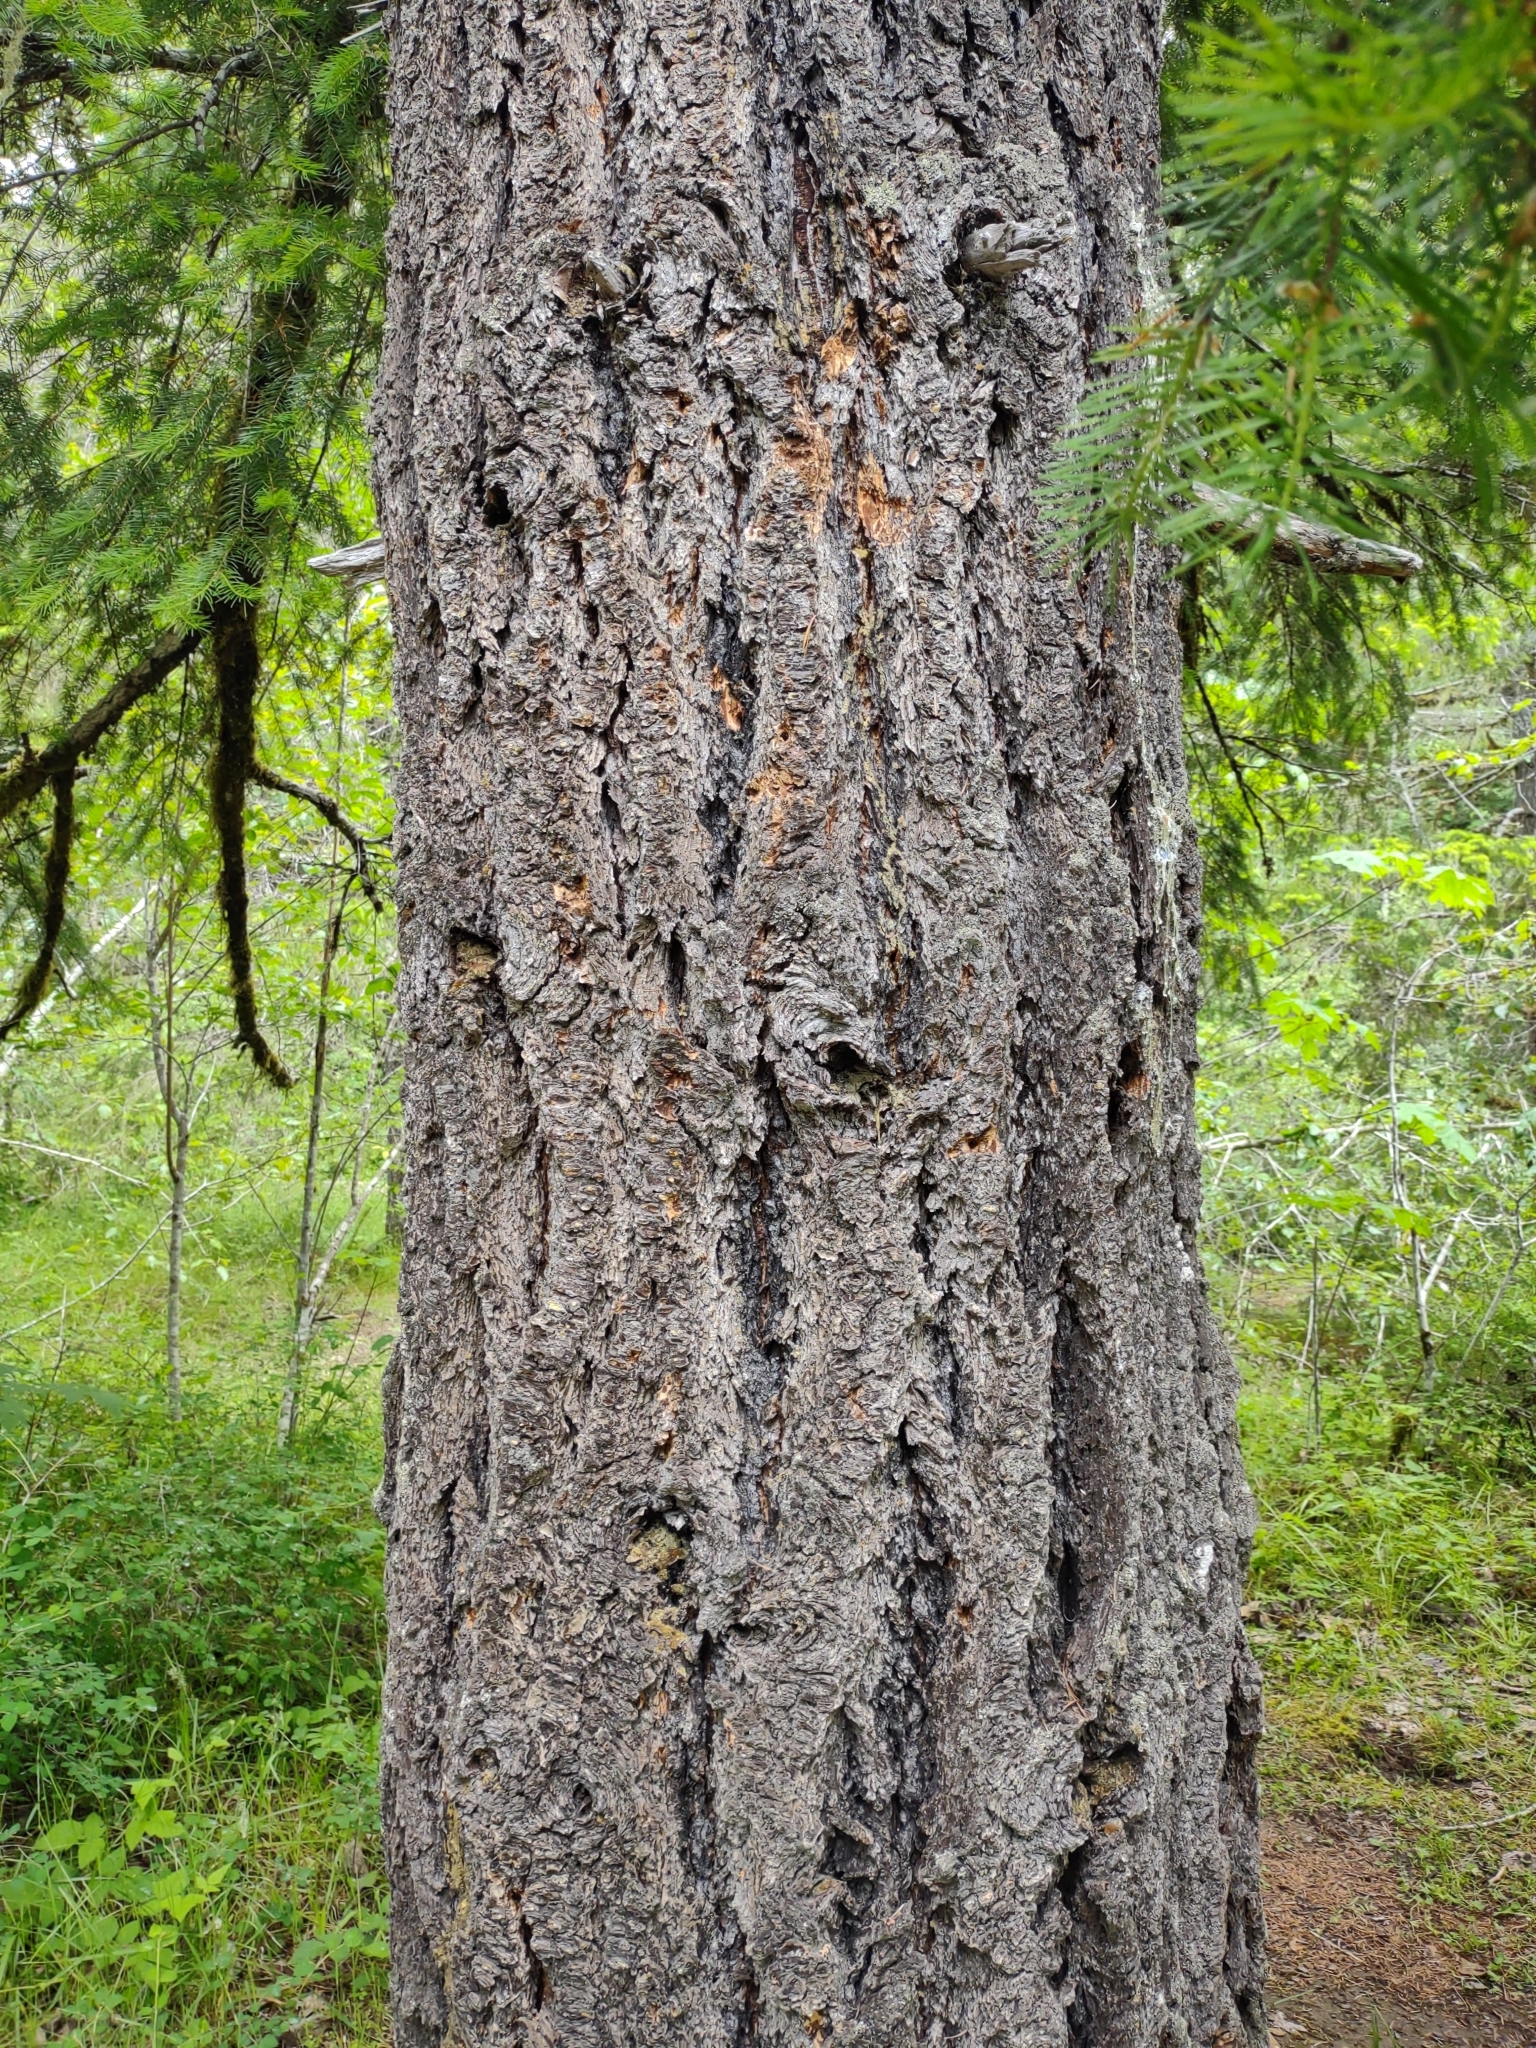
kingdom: Plantae
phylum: Tracheophyta
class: Pinopsida
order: Pinales
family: Pinaceae
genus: Pseudotsuga
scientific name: Pseudotsuga menziesii
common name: Douglas fir
